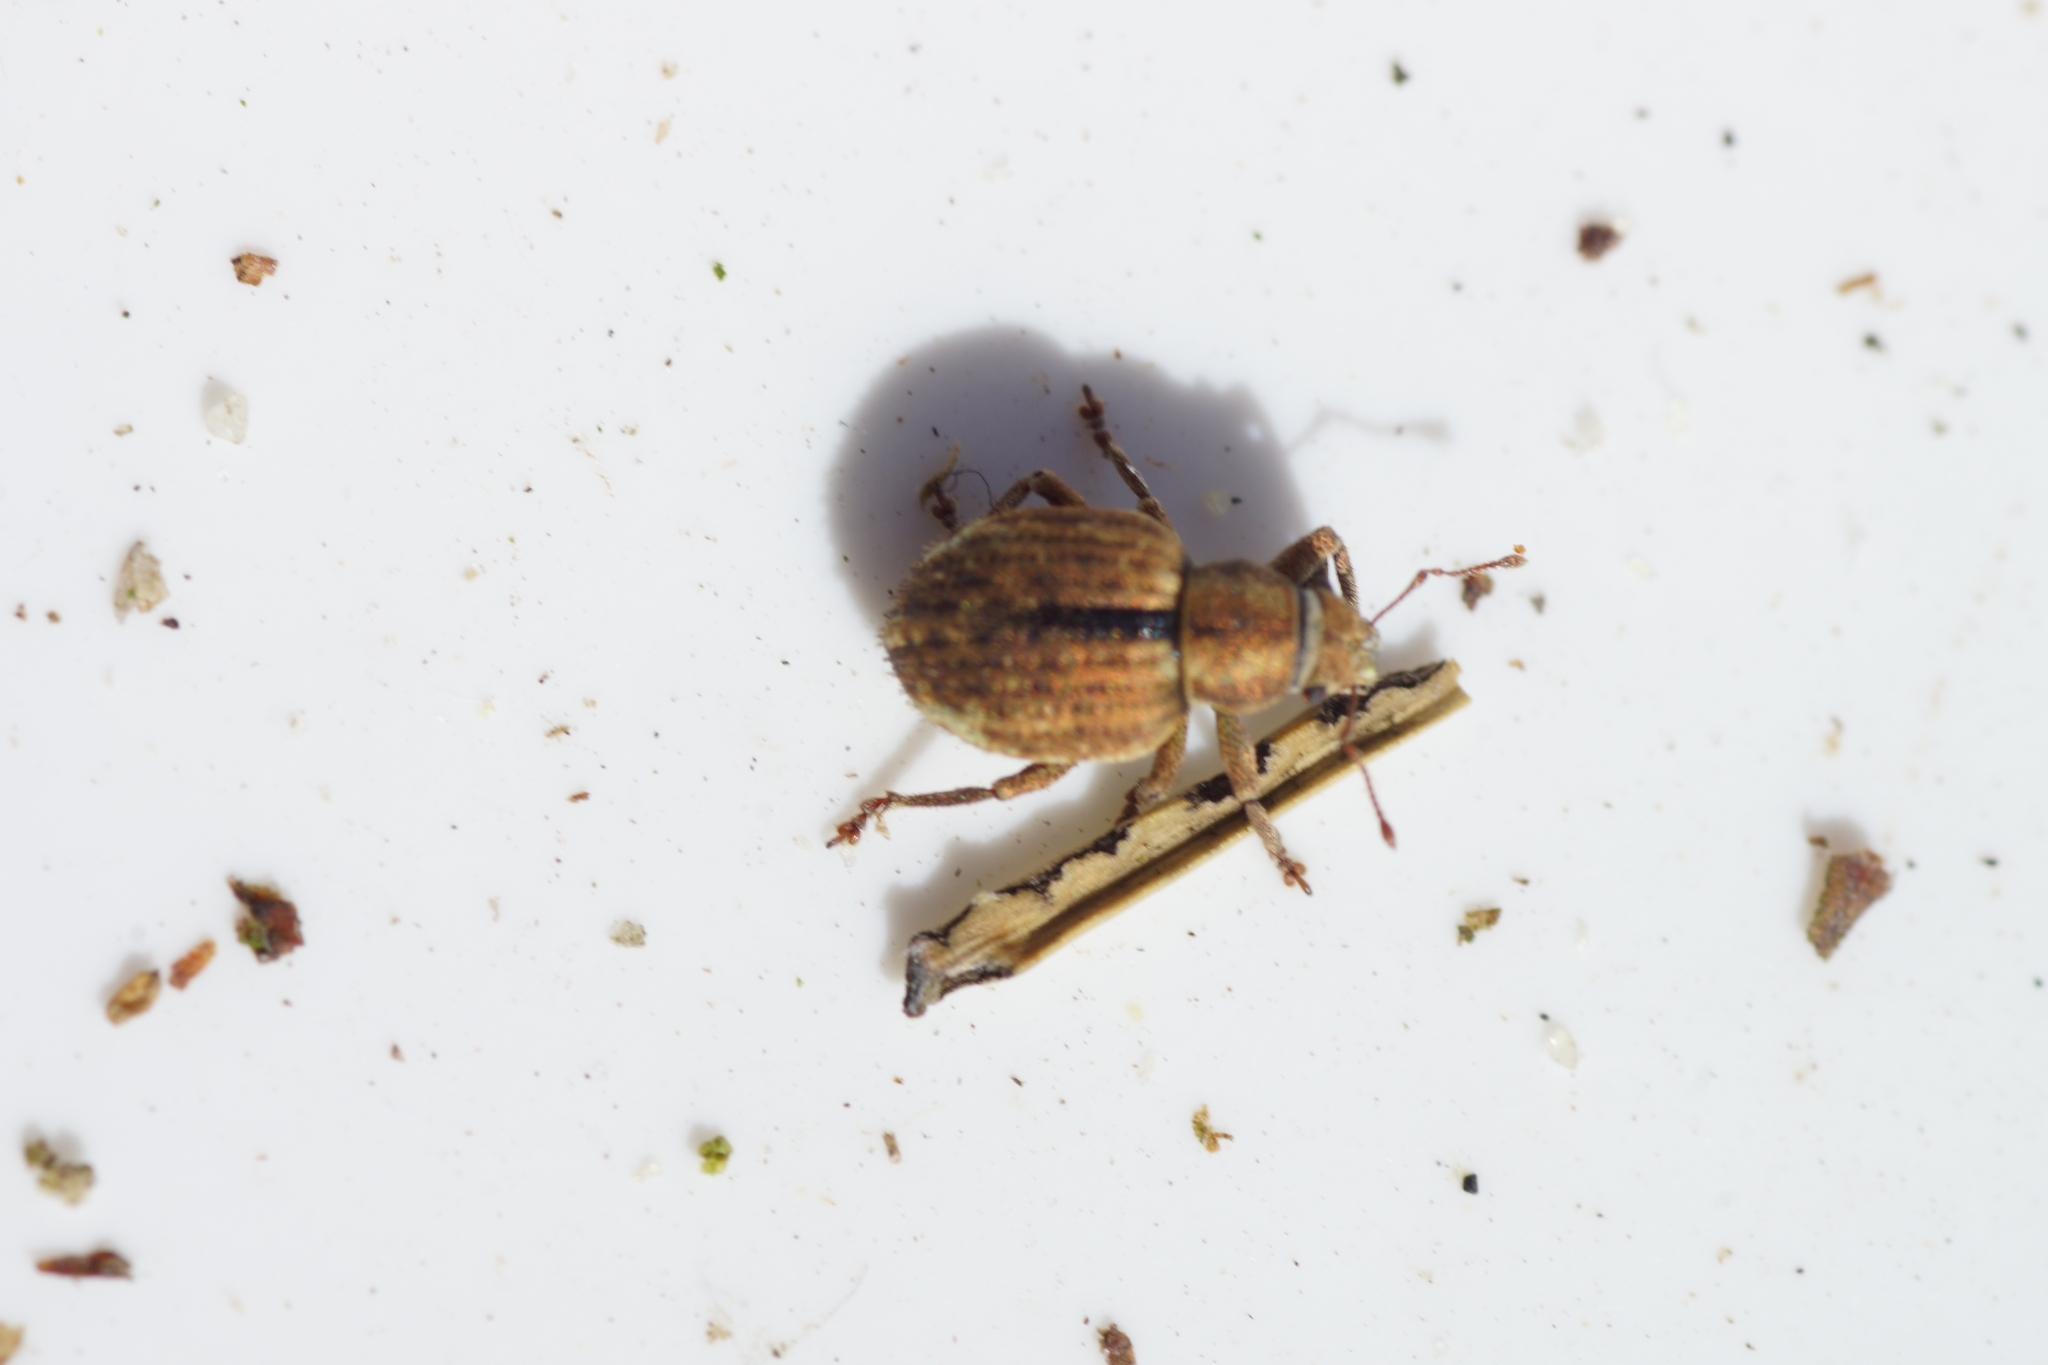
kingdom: Animalia
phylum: Arthropoda
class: Insecta
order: Coleoptera
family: Curculionidae
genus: Strophosoma
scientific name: Strophosoma melanogrammum
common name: Weevil
